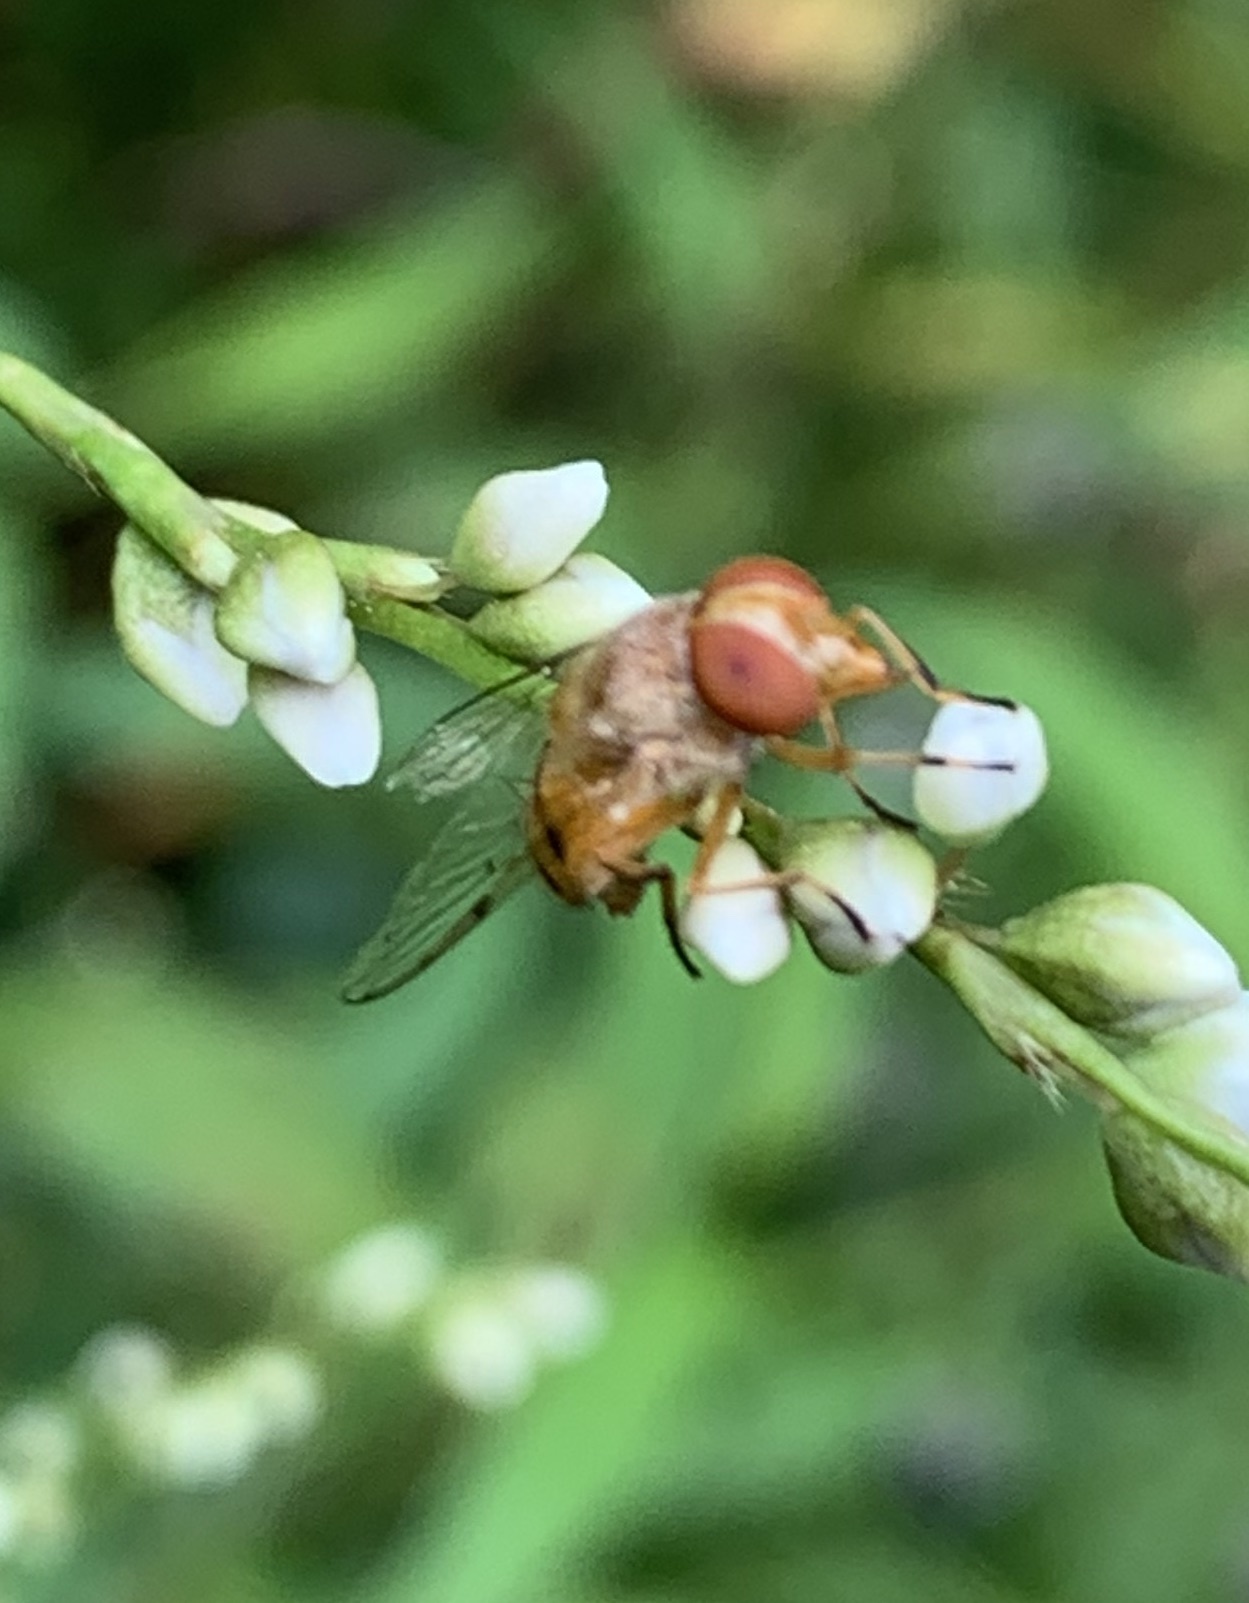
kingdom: Animalia
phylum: Arthropoda
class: Insecta
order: Diptera
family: Syrphidae
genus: Copestylum
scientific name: Copestylum sexmaculatum
